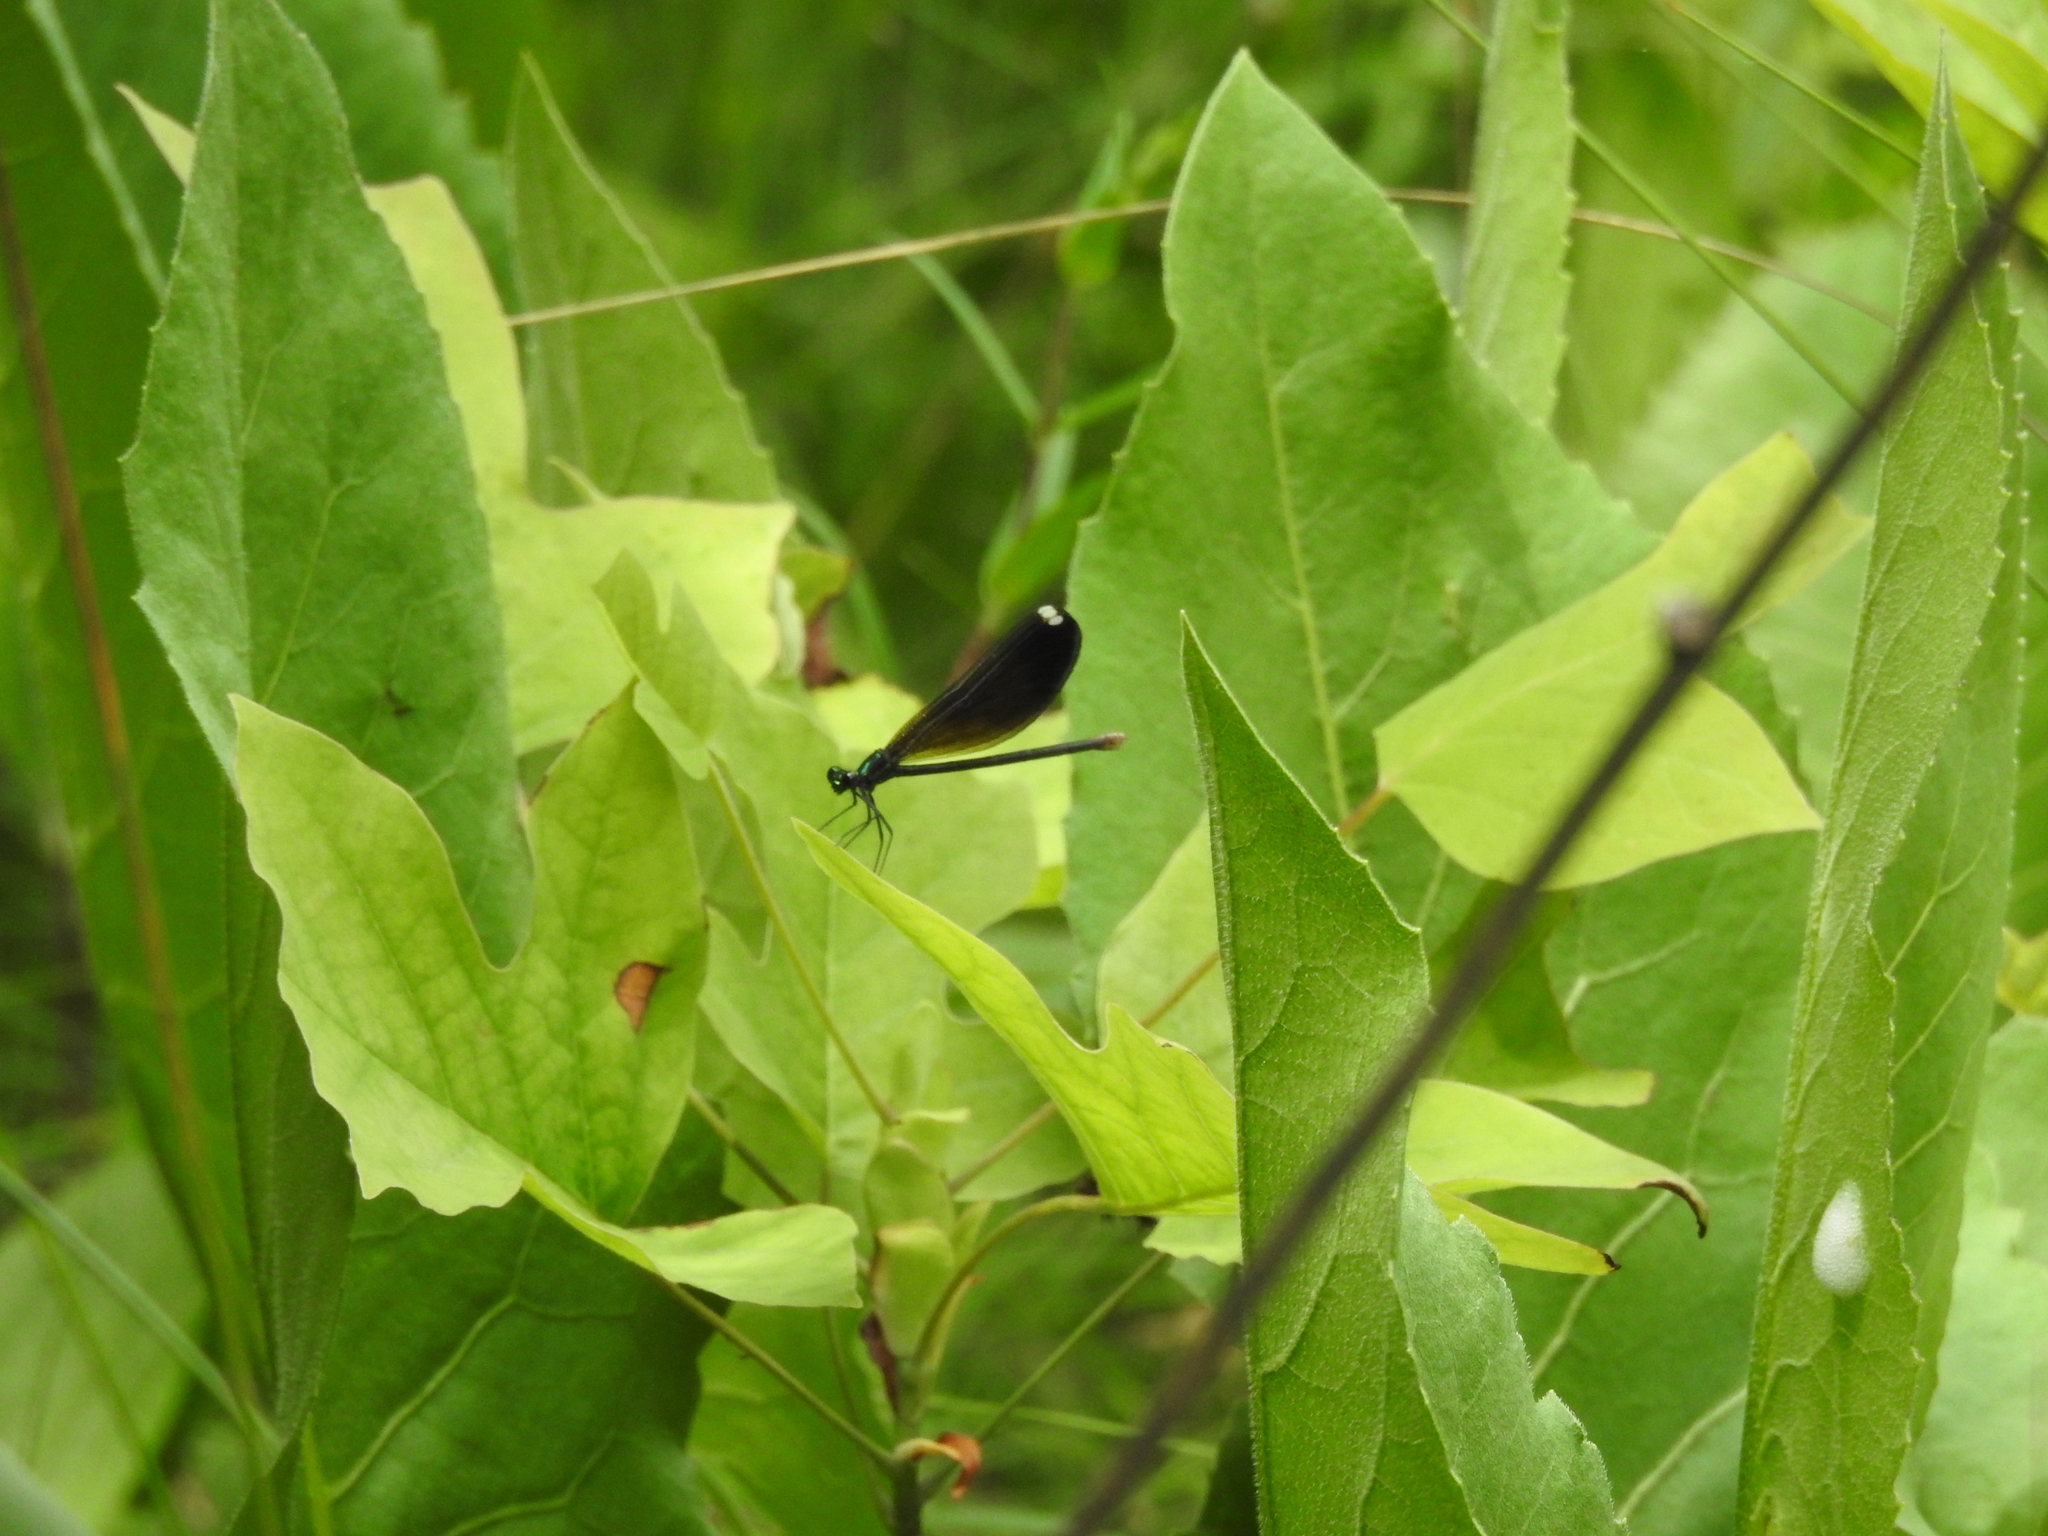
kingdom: Animalia
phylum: Arthropoda
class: Insecta
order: Odonata
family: Calopterygidae
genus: Calopteryx
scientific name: Calopteryx maculata
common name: Ebony jewelwing
